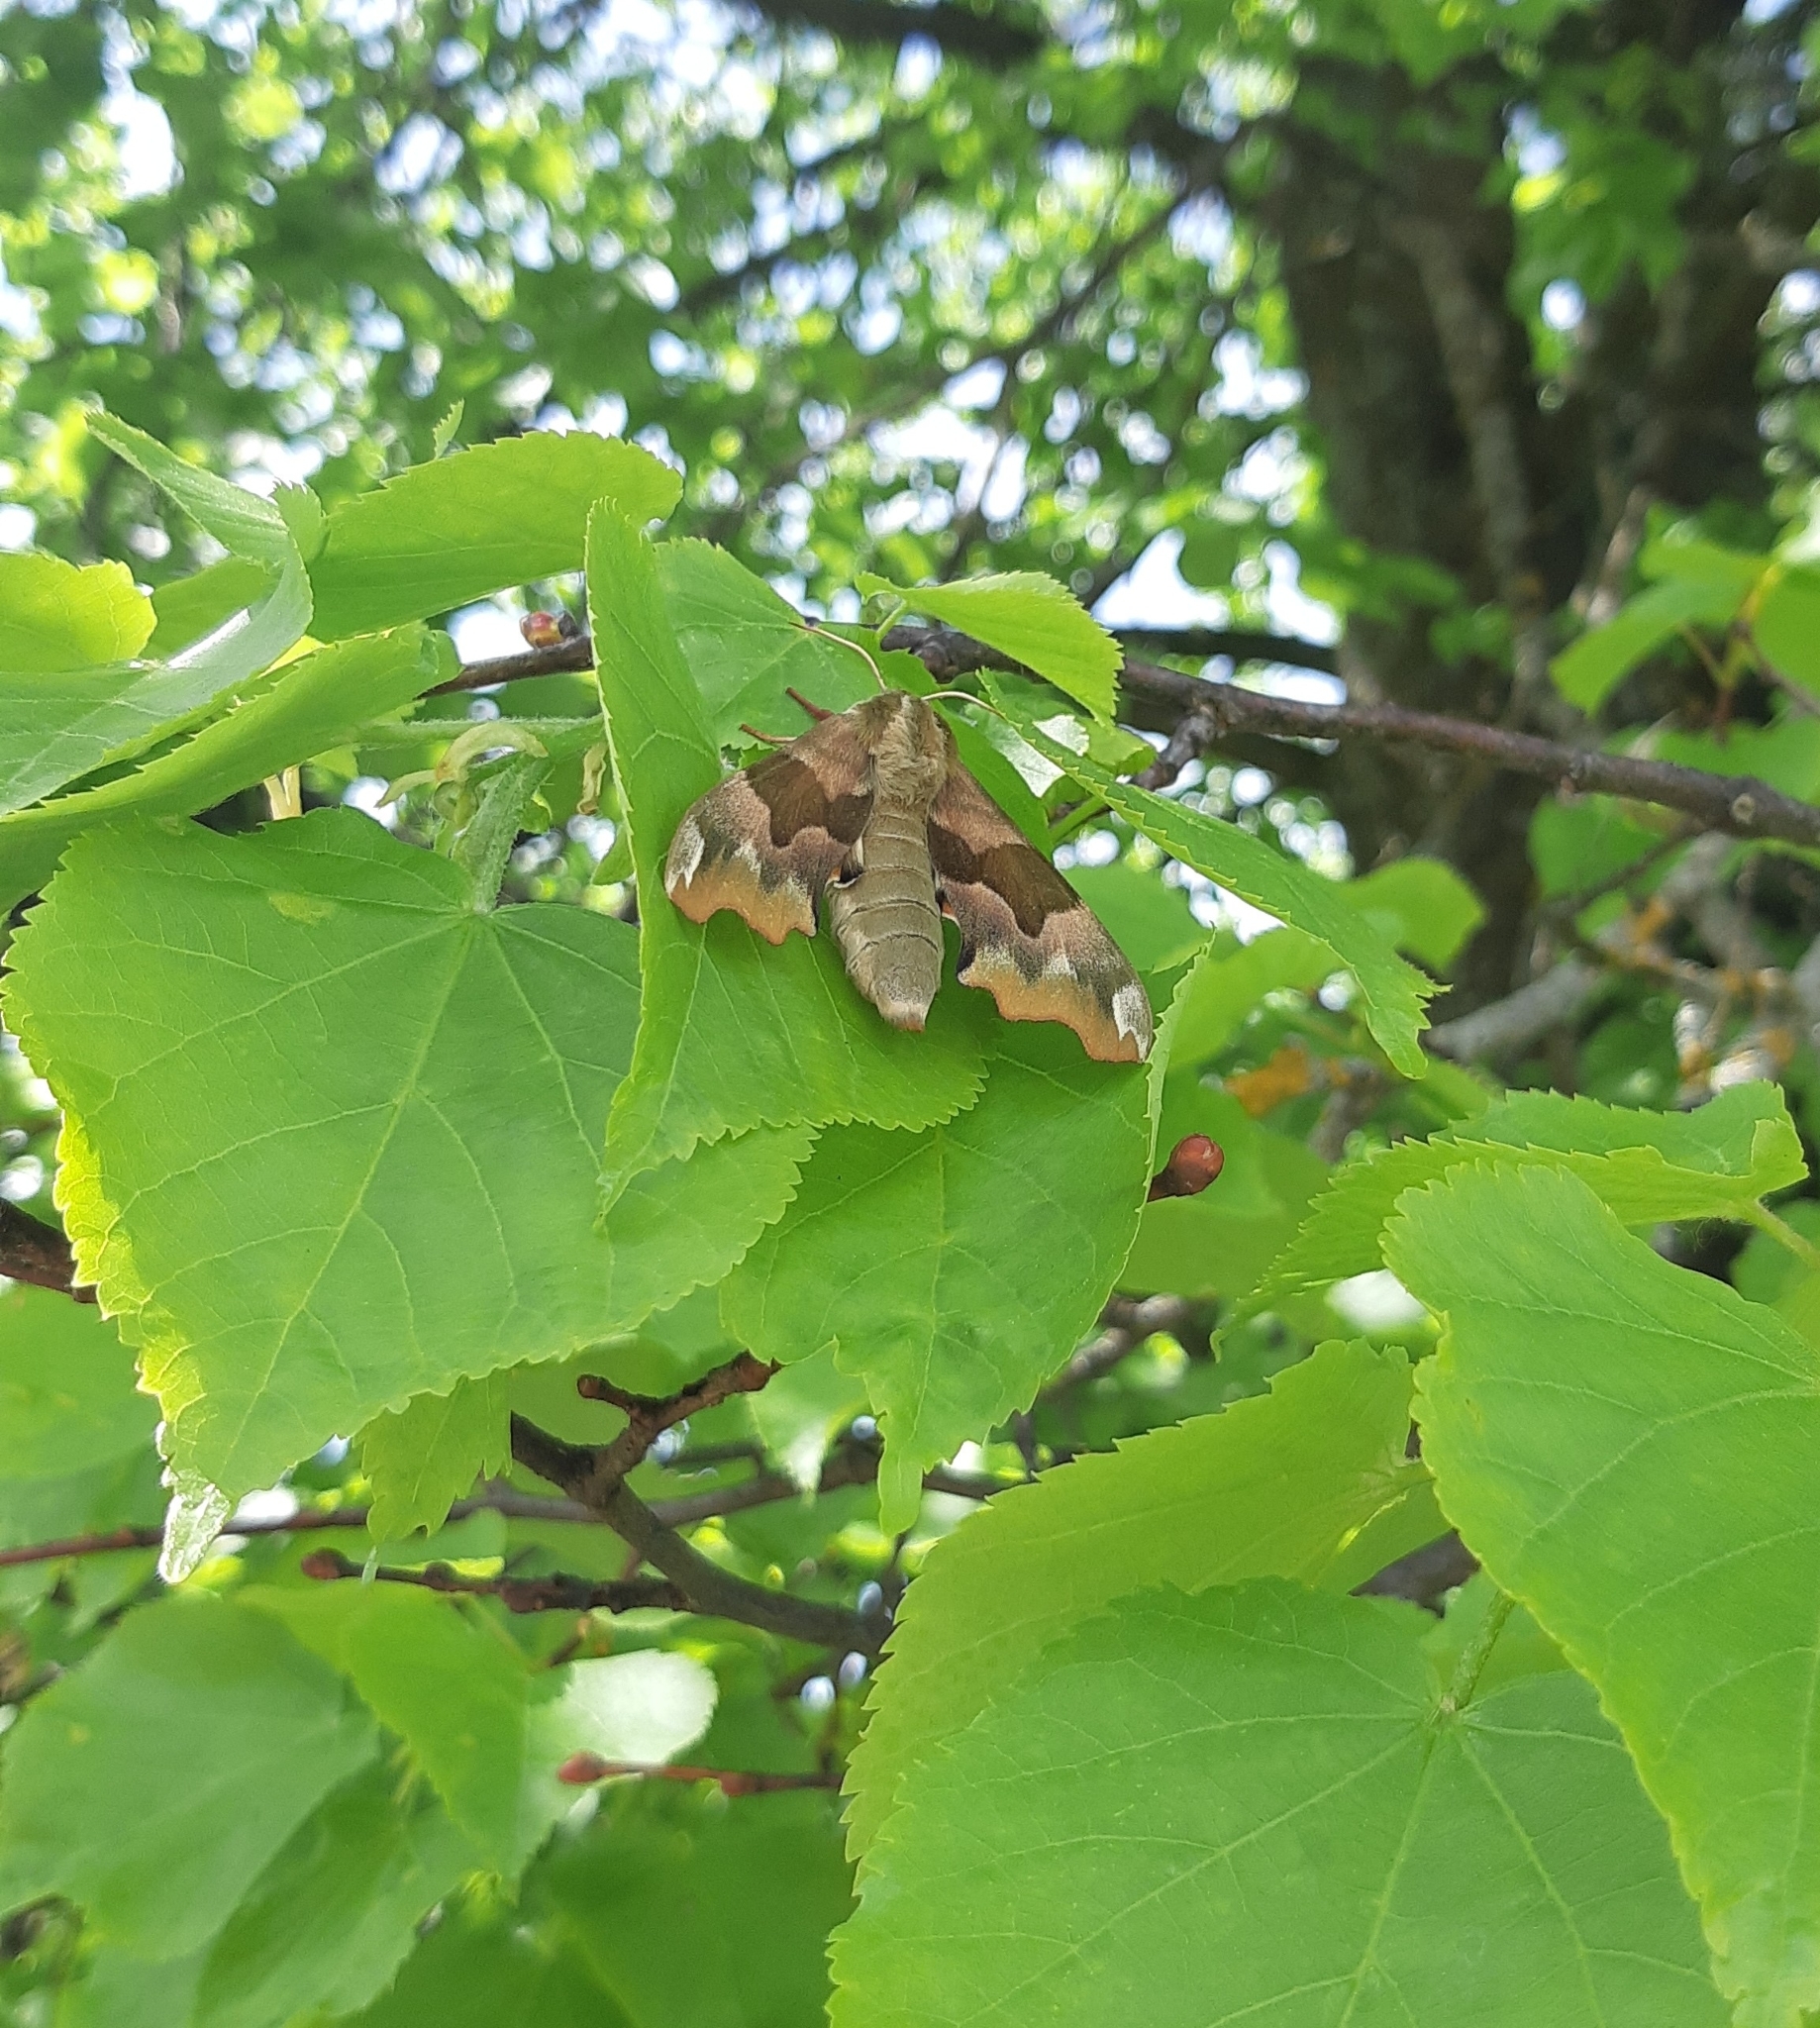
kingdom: Animalia
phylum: Arthropoda
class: Insecta
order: Lepidoptera
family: Sphingidae
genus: Mimas
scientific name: Mimas tiliae
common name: Lime hawk-moth
